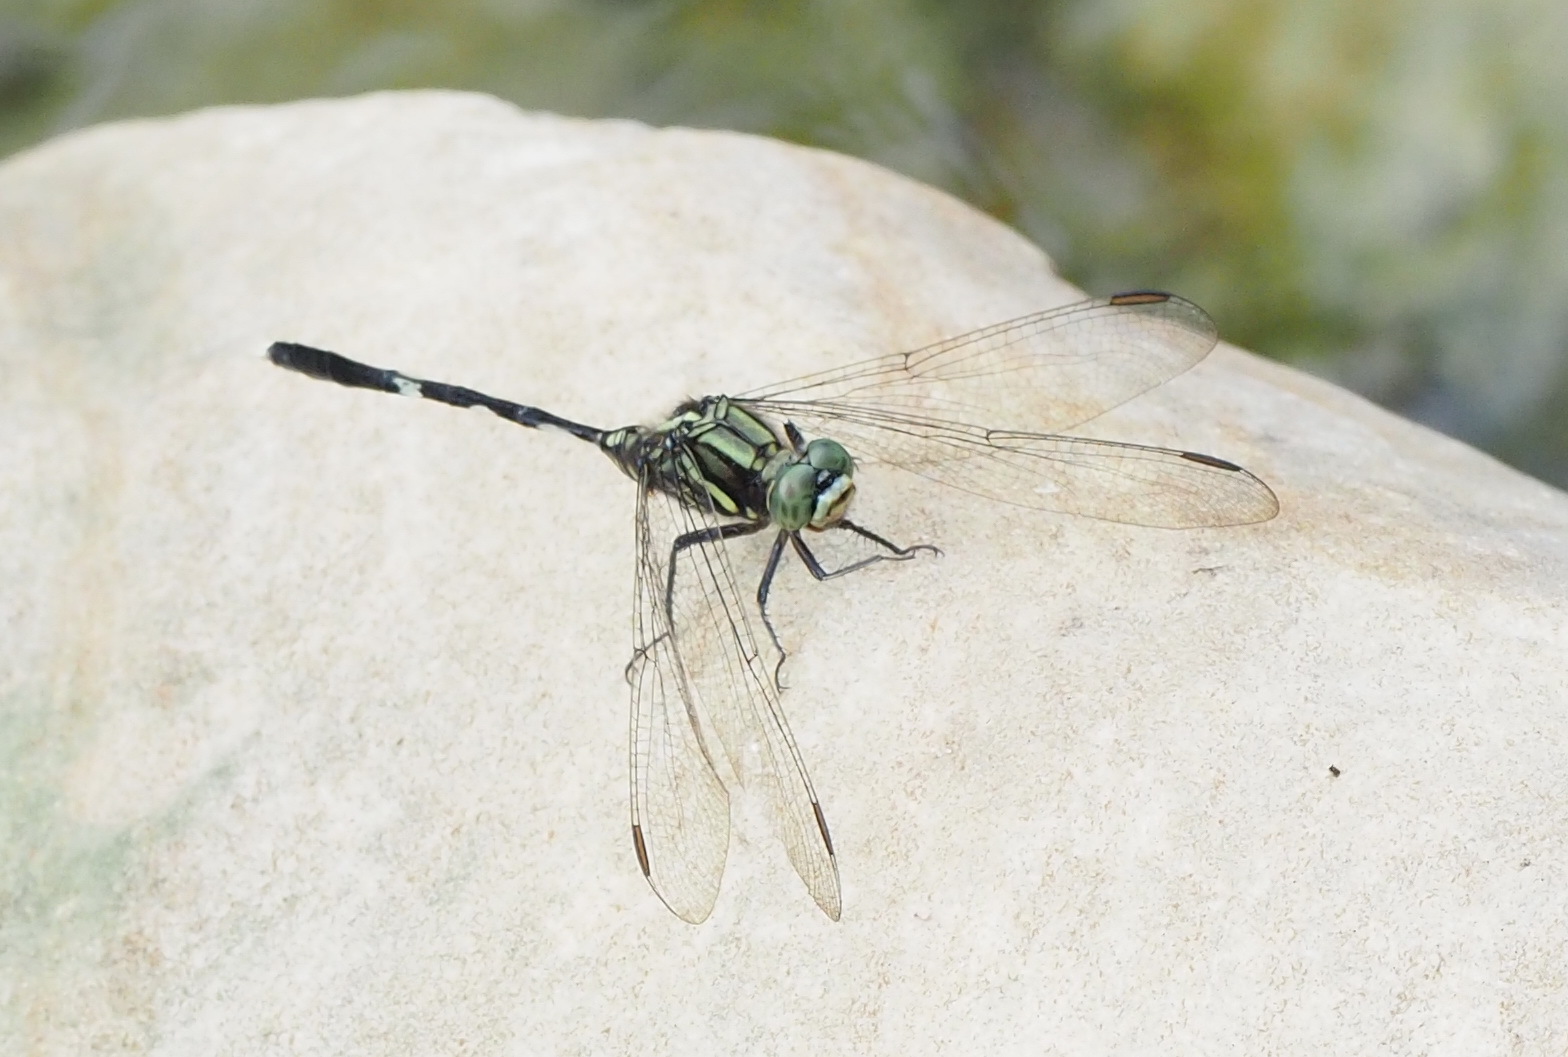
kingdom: Animalia
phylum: Arthropoda
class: Insecta
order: Odonata
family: Libellulidae
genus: Orthetrum
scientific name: Orthetrum sabina
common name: Slender skimmer
